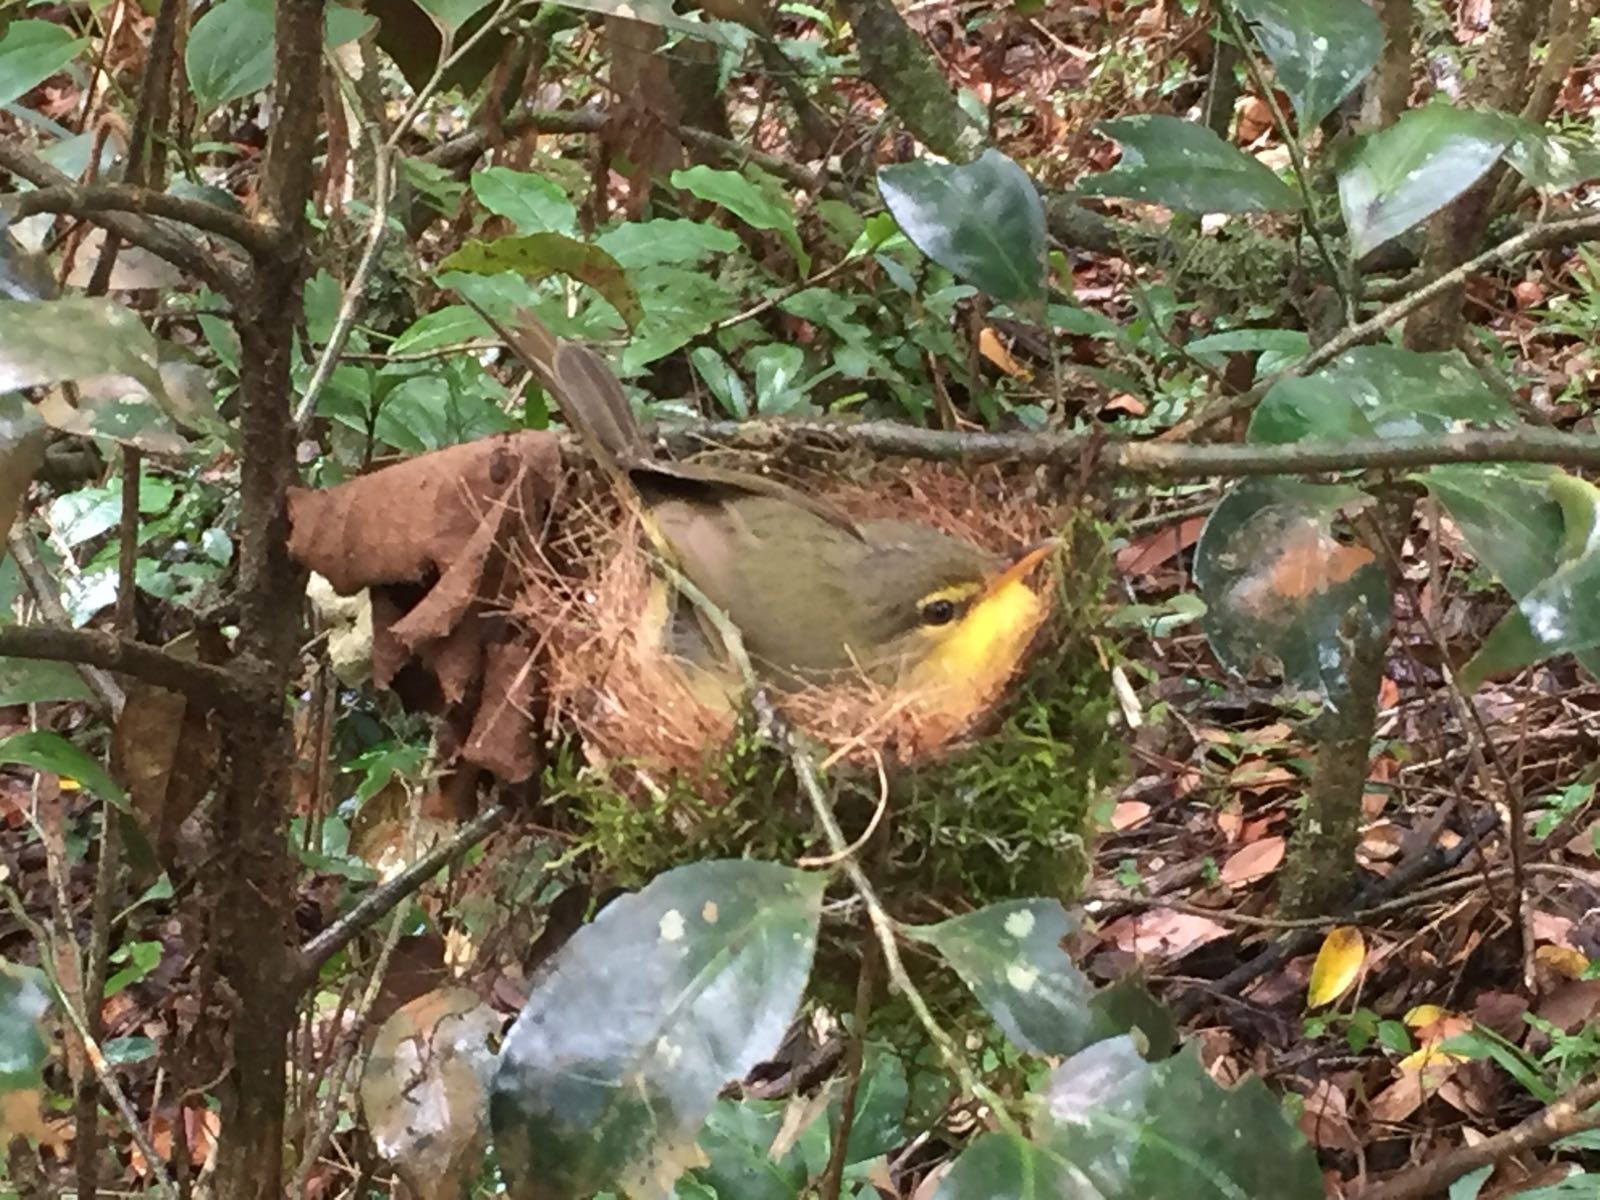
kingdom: Animalia
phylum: Chordata
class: Aves
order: Passeriformes
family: Bernieridae
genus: Xanthomixis
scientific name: Xanthomixis zosterops
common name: Spectacled tetraka
